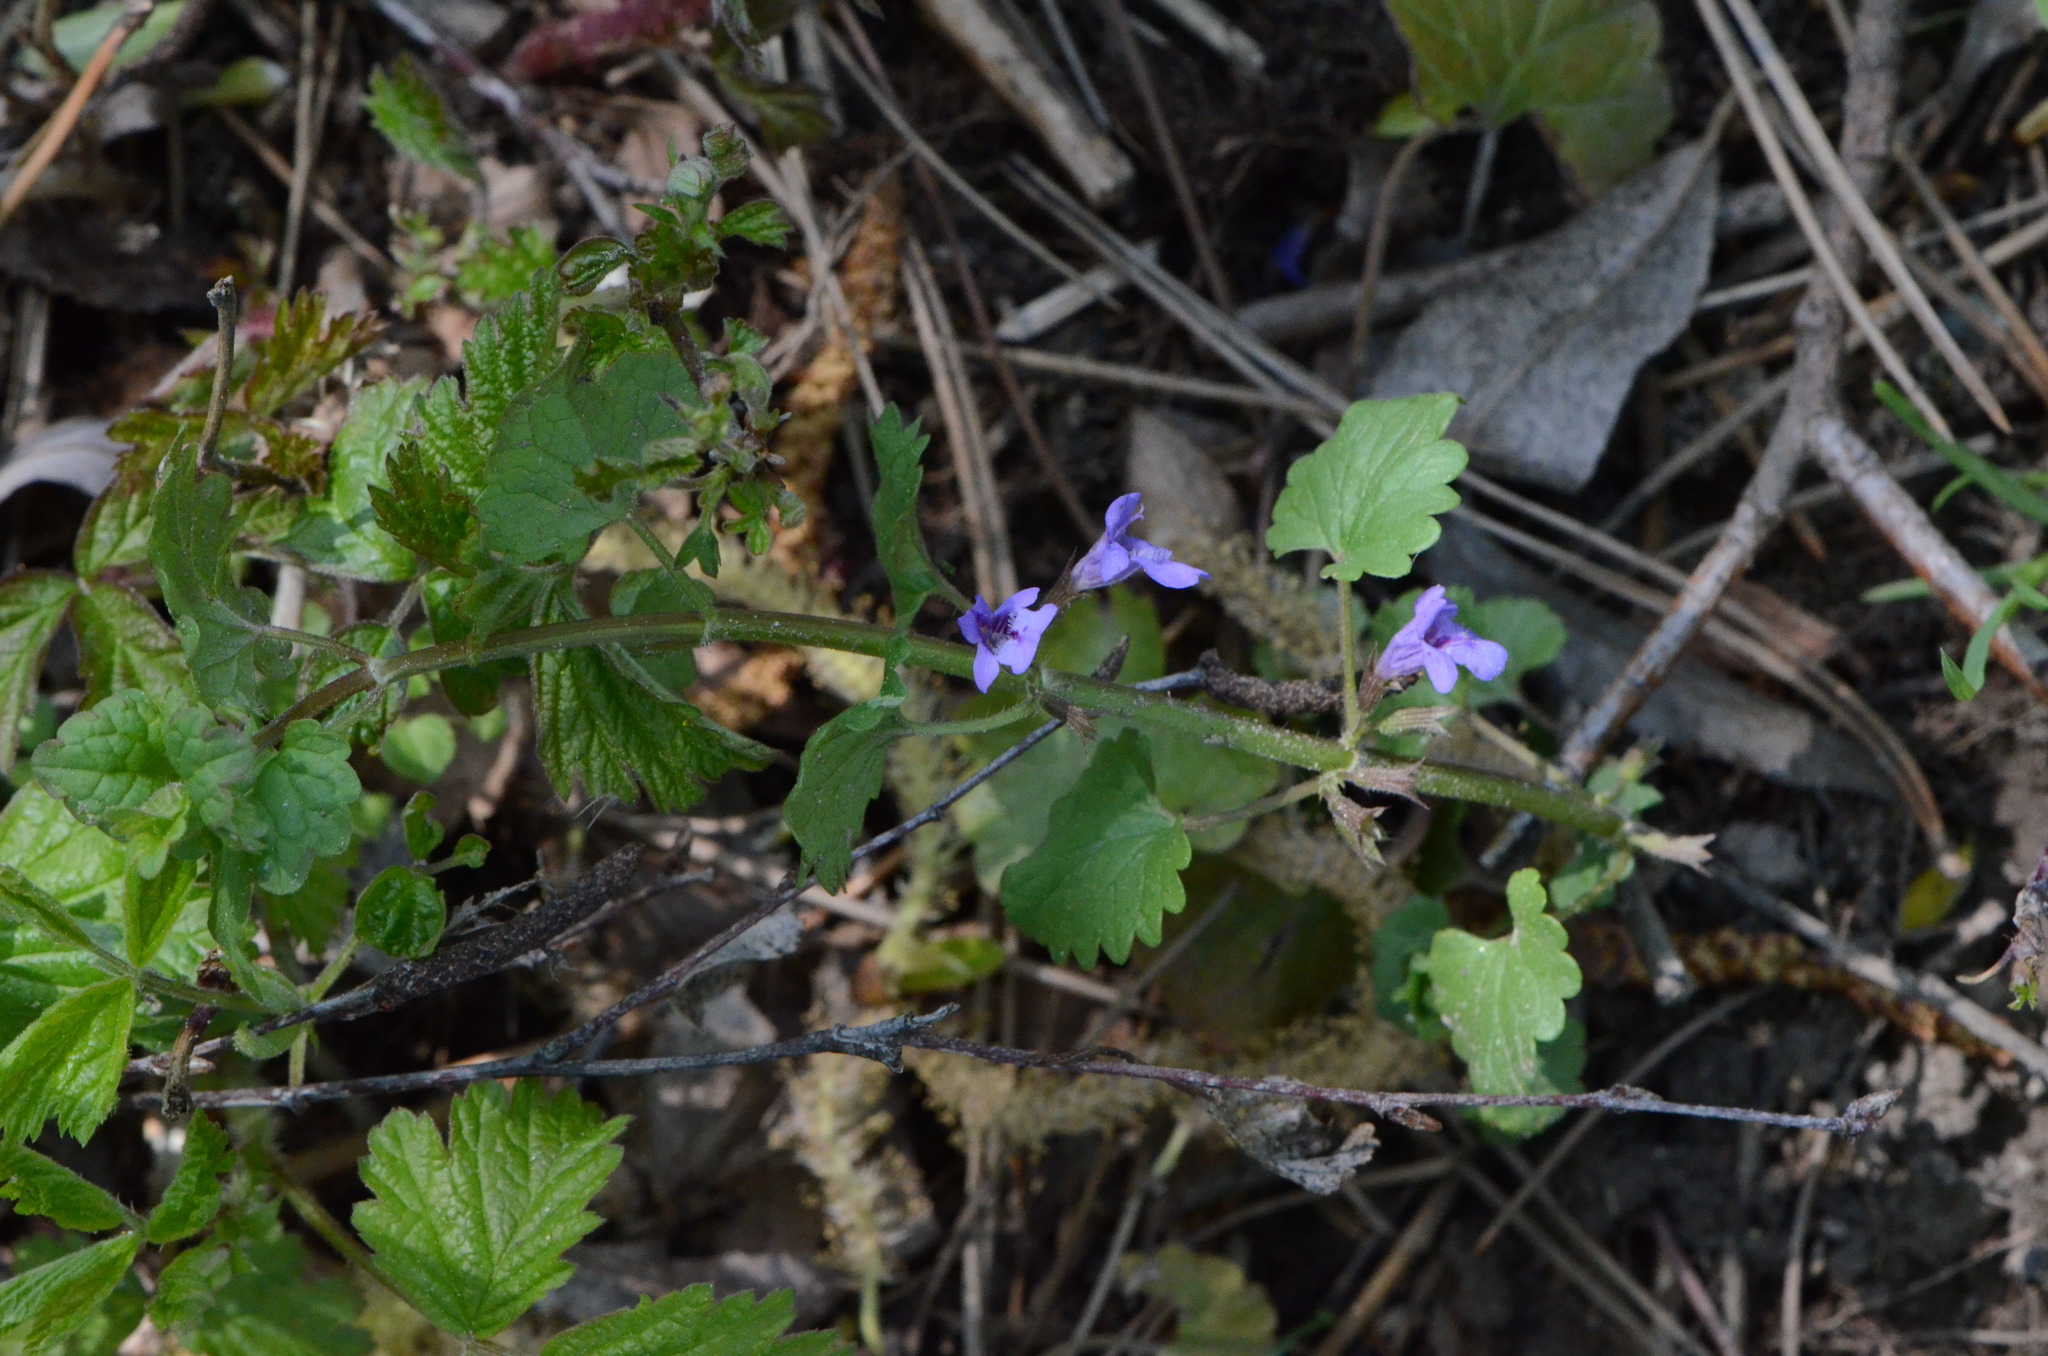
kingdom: Plantae
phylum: Tracheophyta
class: Magnoliopsida
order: Lamiales
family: Lamiaceae
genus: Glechoma
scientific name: Glechoma hederacea
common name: Ground ivy
